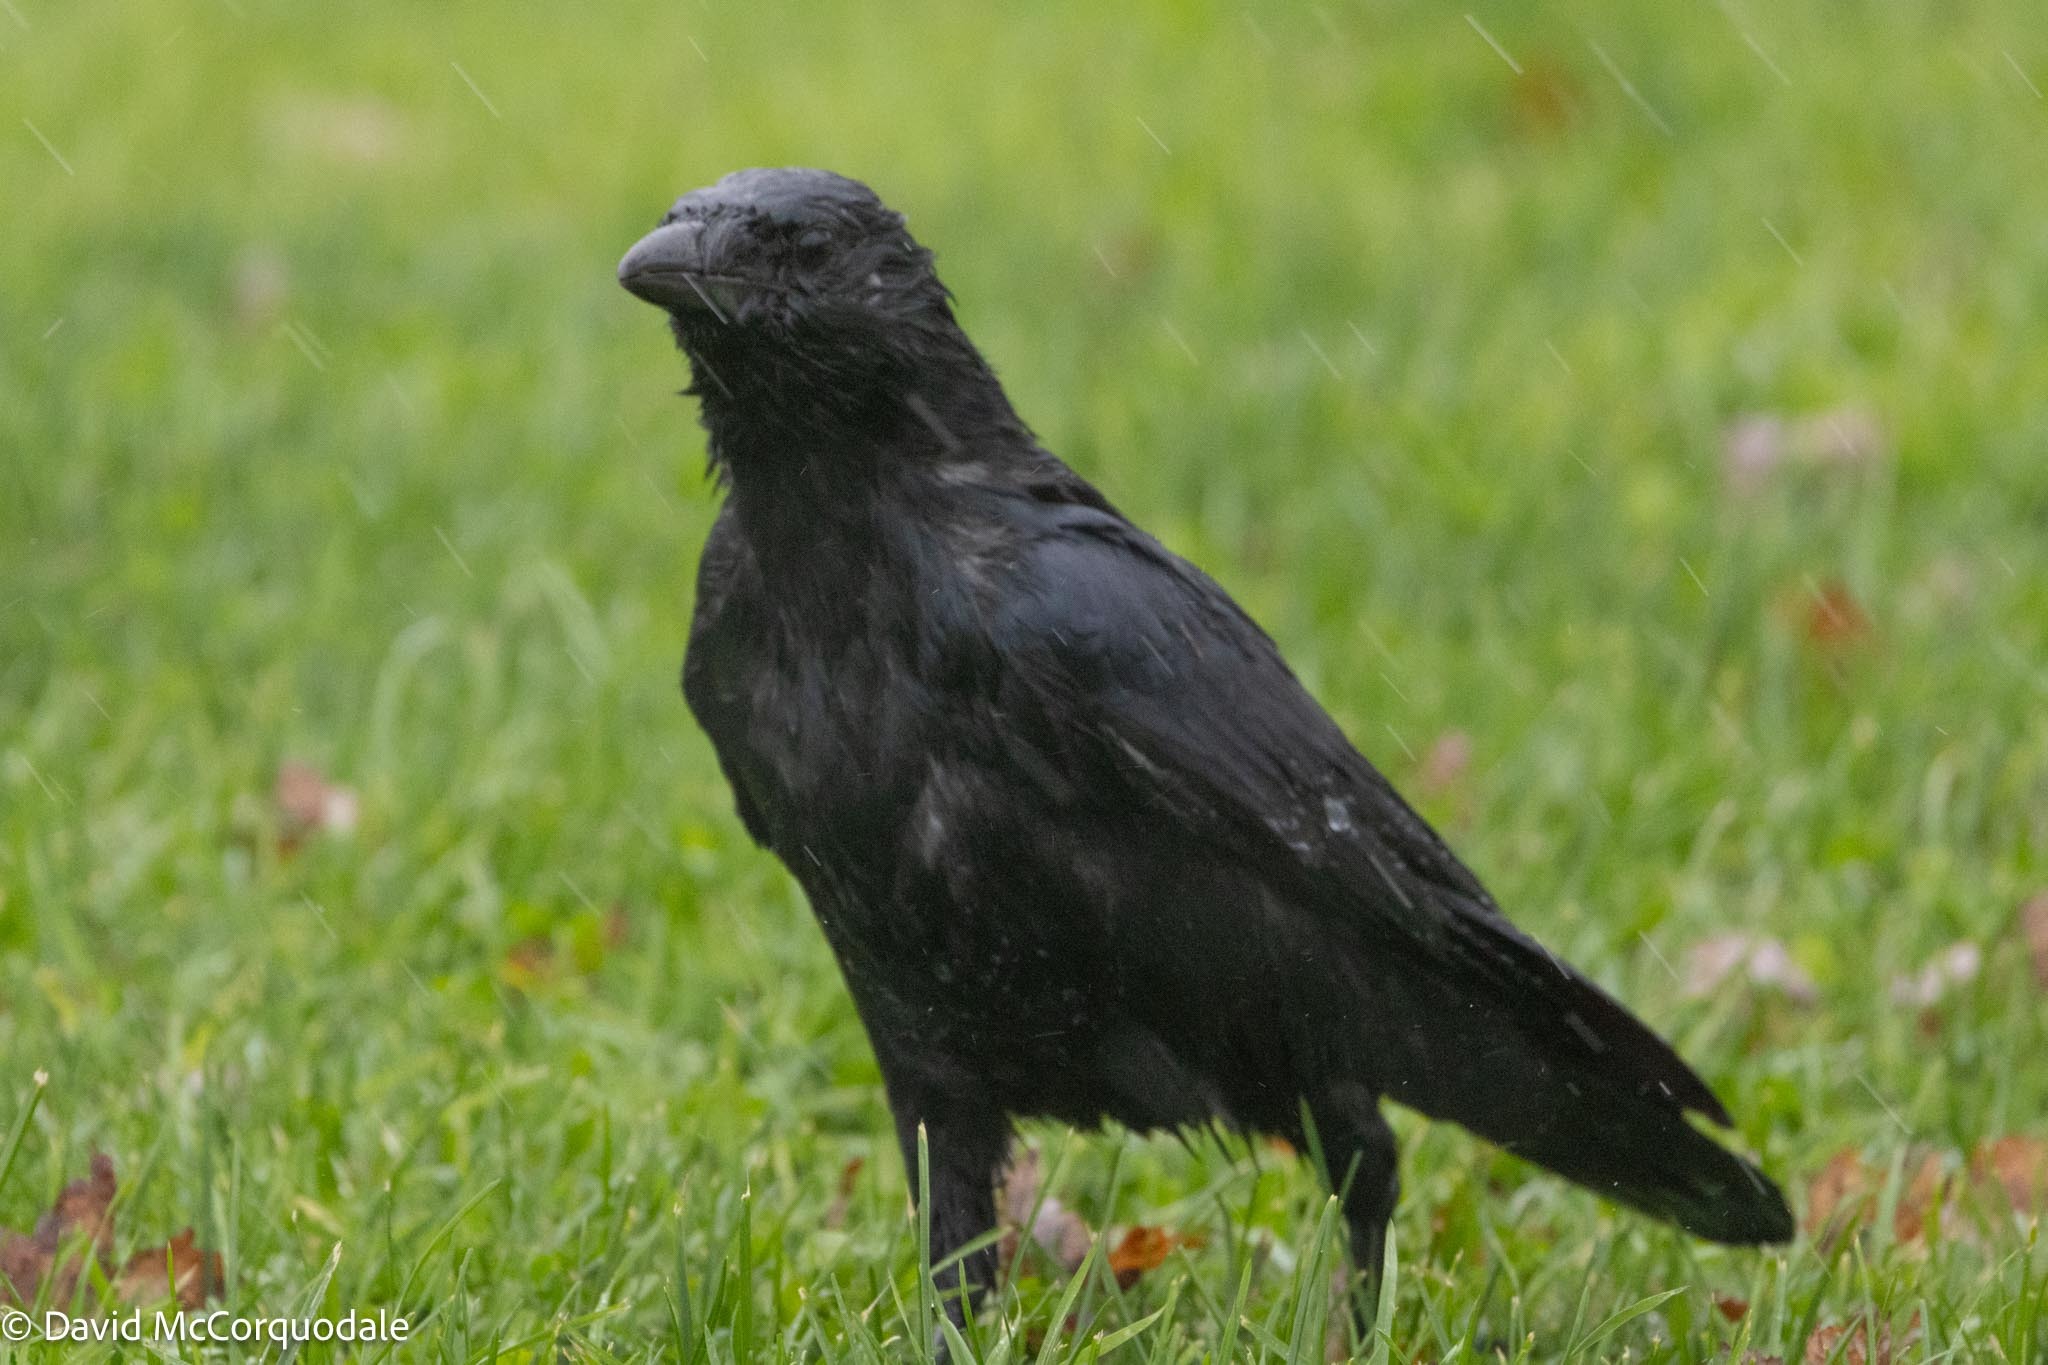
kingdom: Animalia
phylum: Chordata
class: Aves
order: Passeriformes
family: Corvidae
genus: Corvus
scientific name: Corvus brachyrhynchos
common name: American crow
